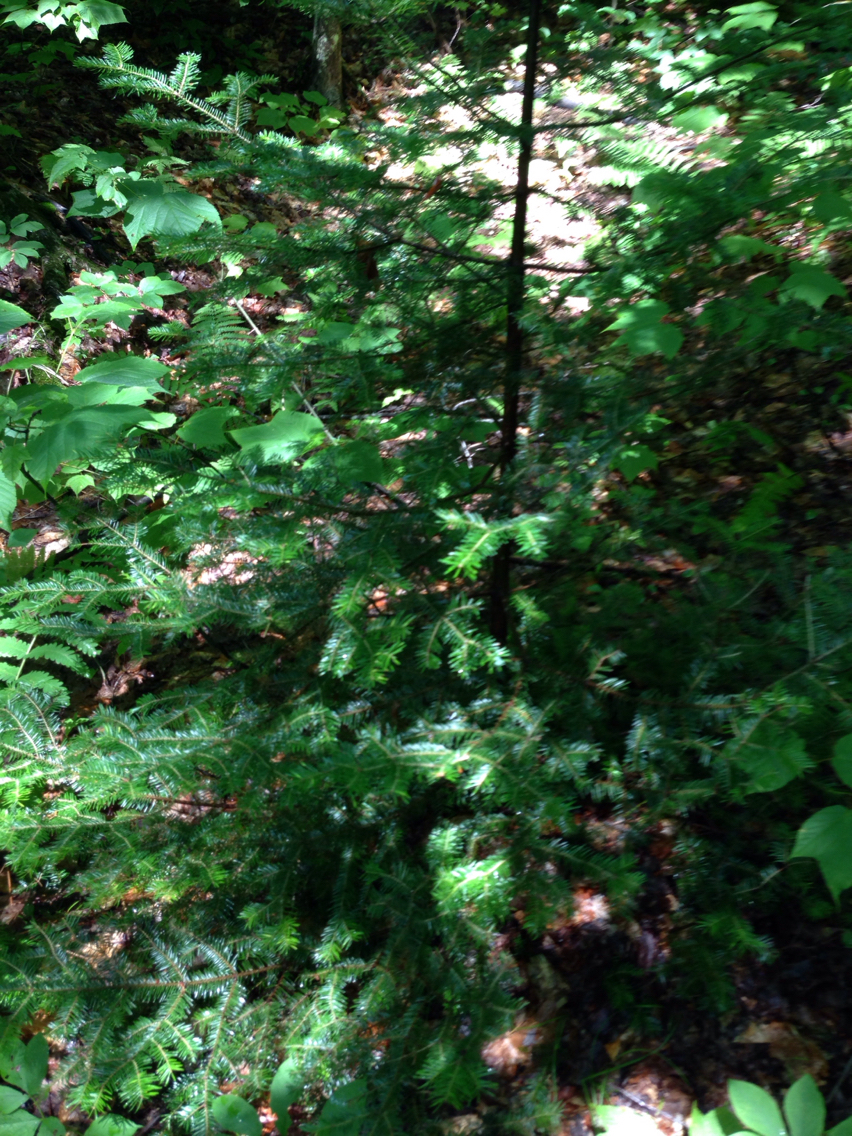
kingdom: Plantae
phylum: Tracheophyta
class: Pinopsida
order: Pinales
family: Pinaceae
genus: Abies
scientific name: Abies balsamea
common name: Balsam fir
